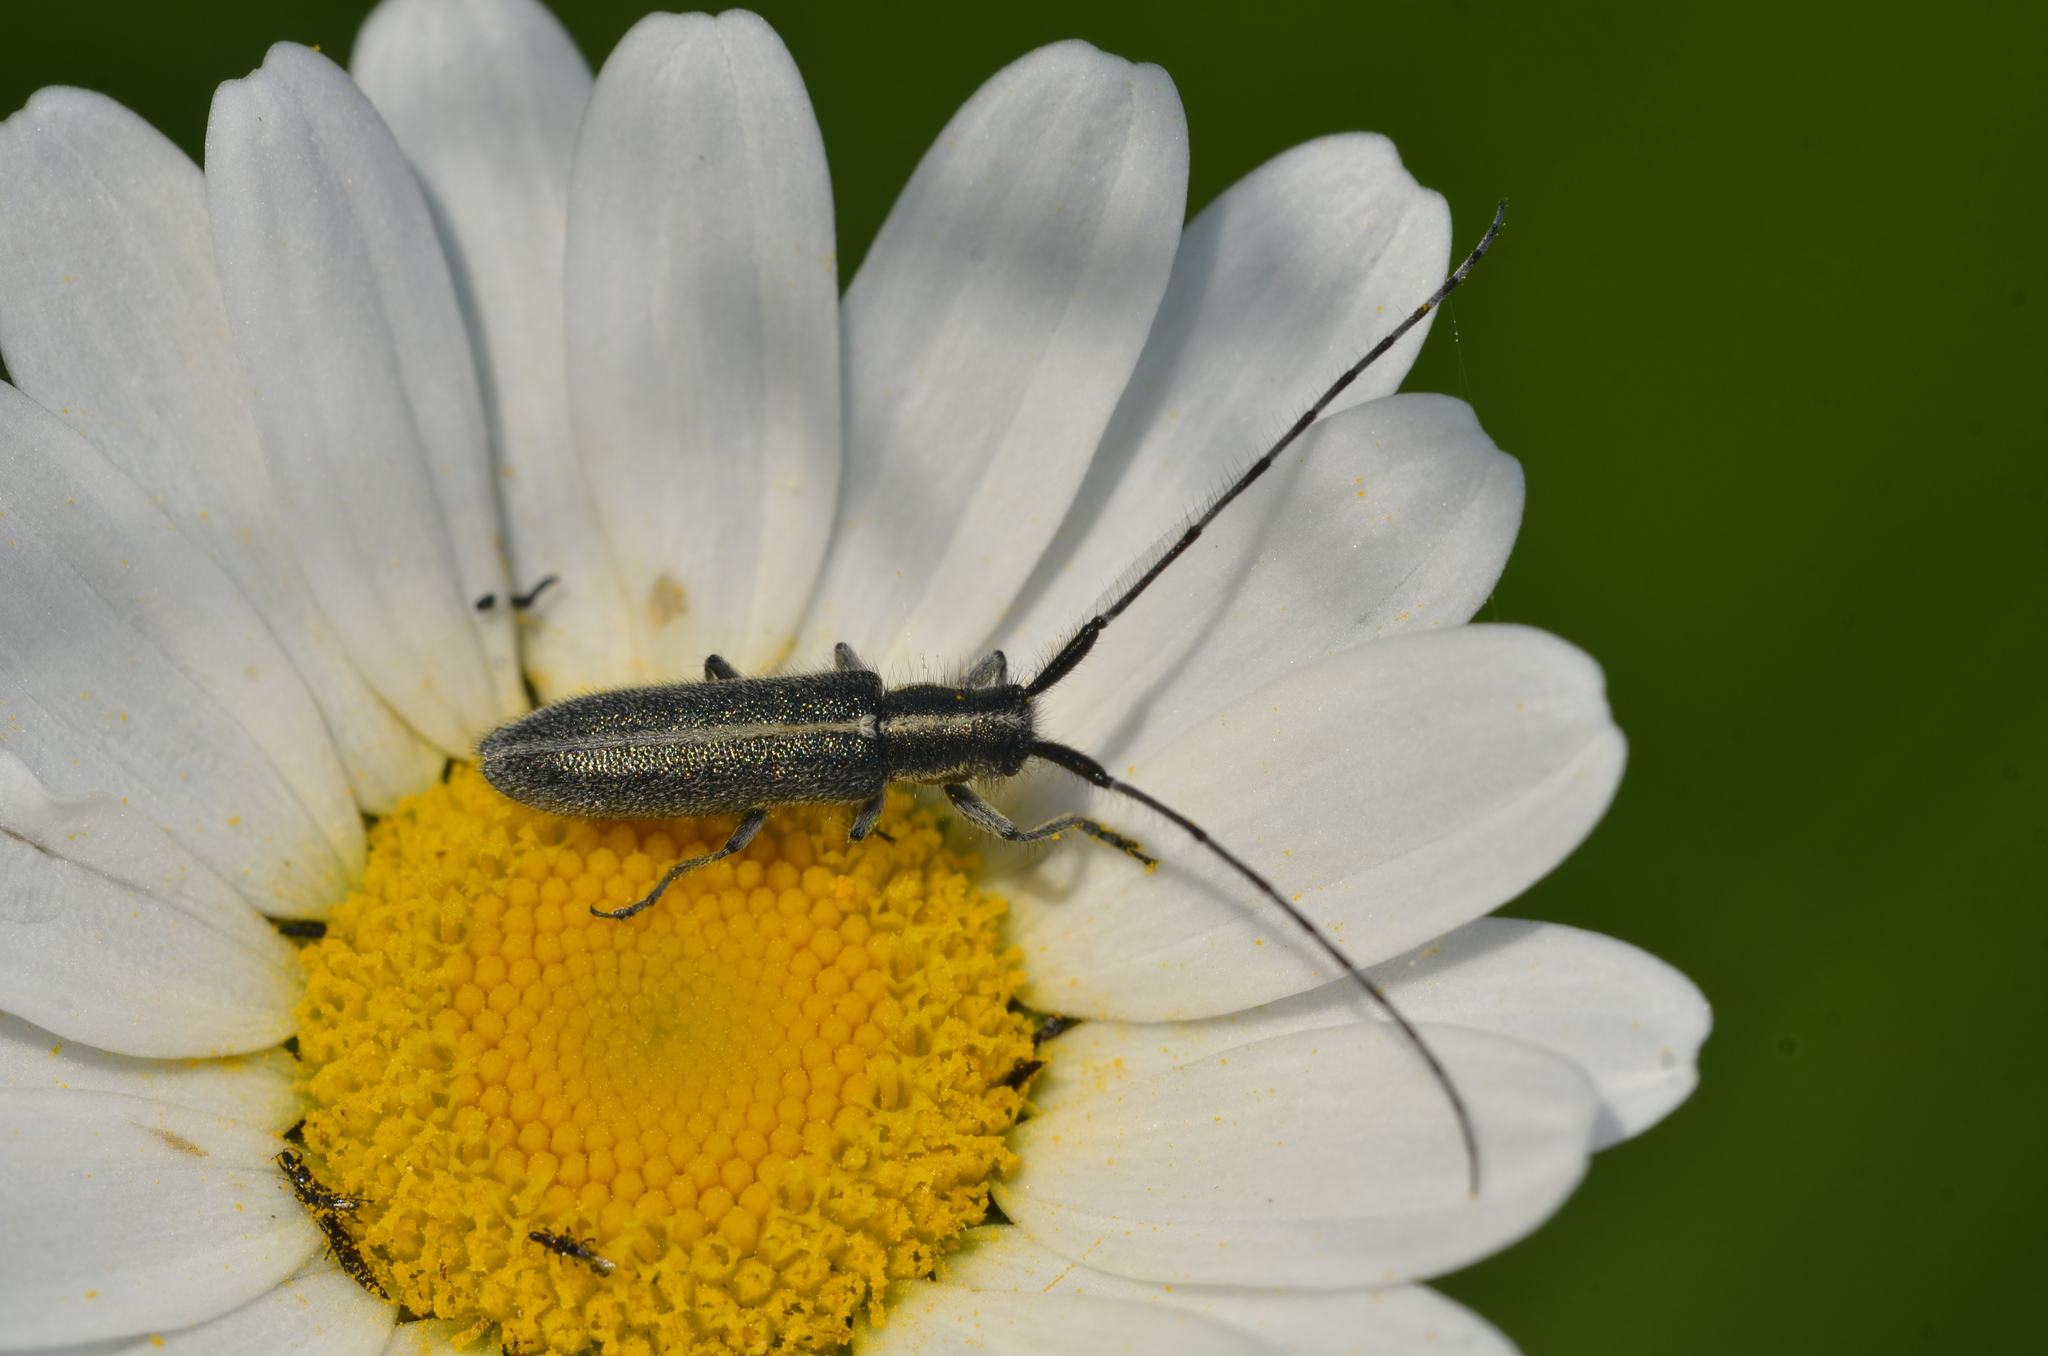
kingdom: Animalia
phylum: Arthropoda
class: Insecta
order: Coleoptera
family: Cerambycidae
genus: Agapanthia
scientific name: Agapanthia cardui
